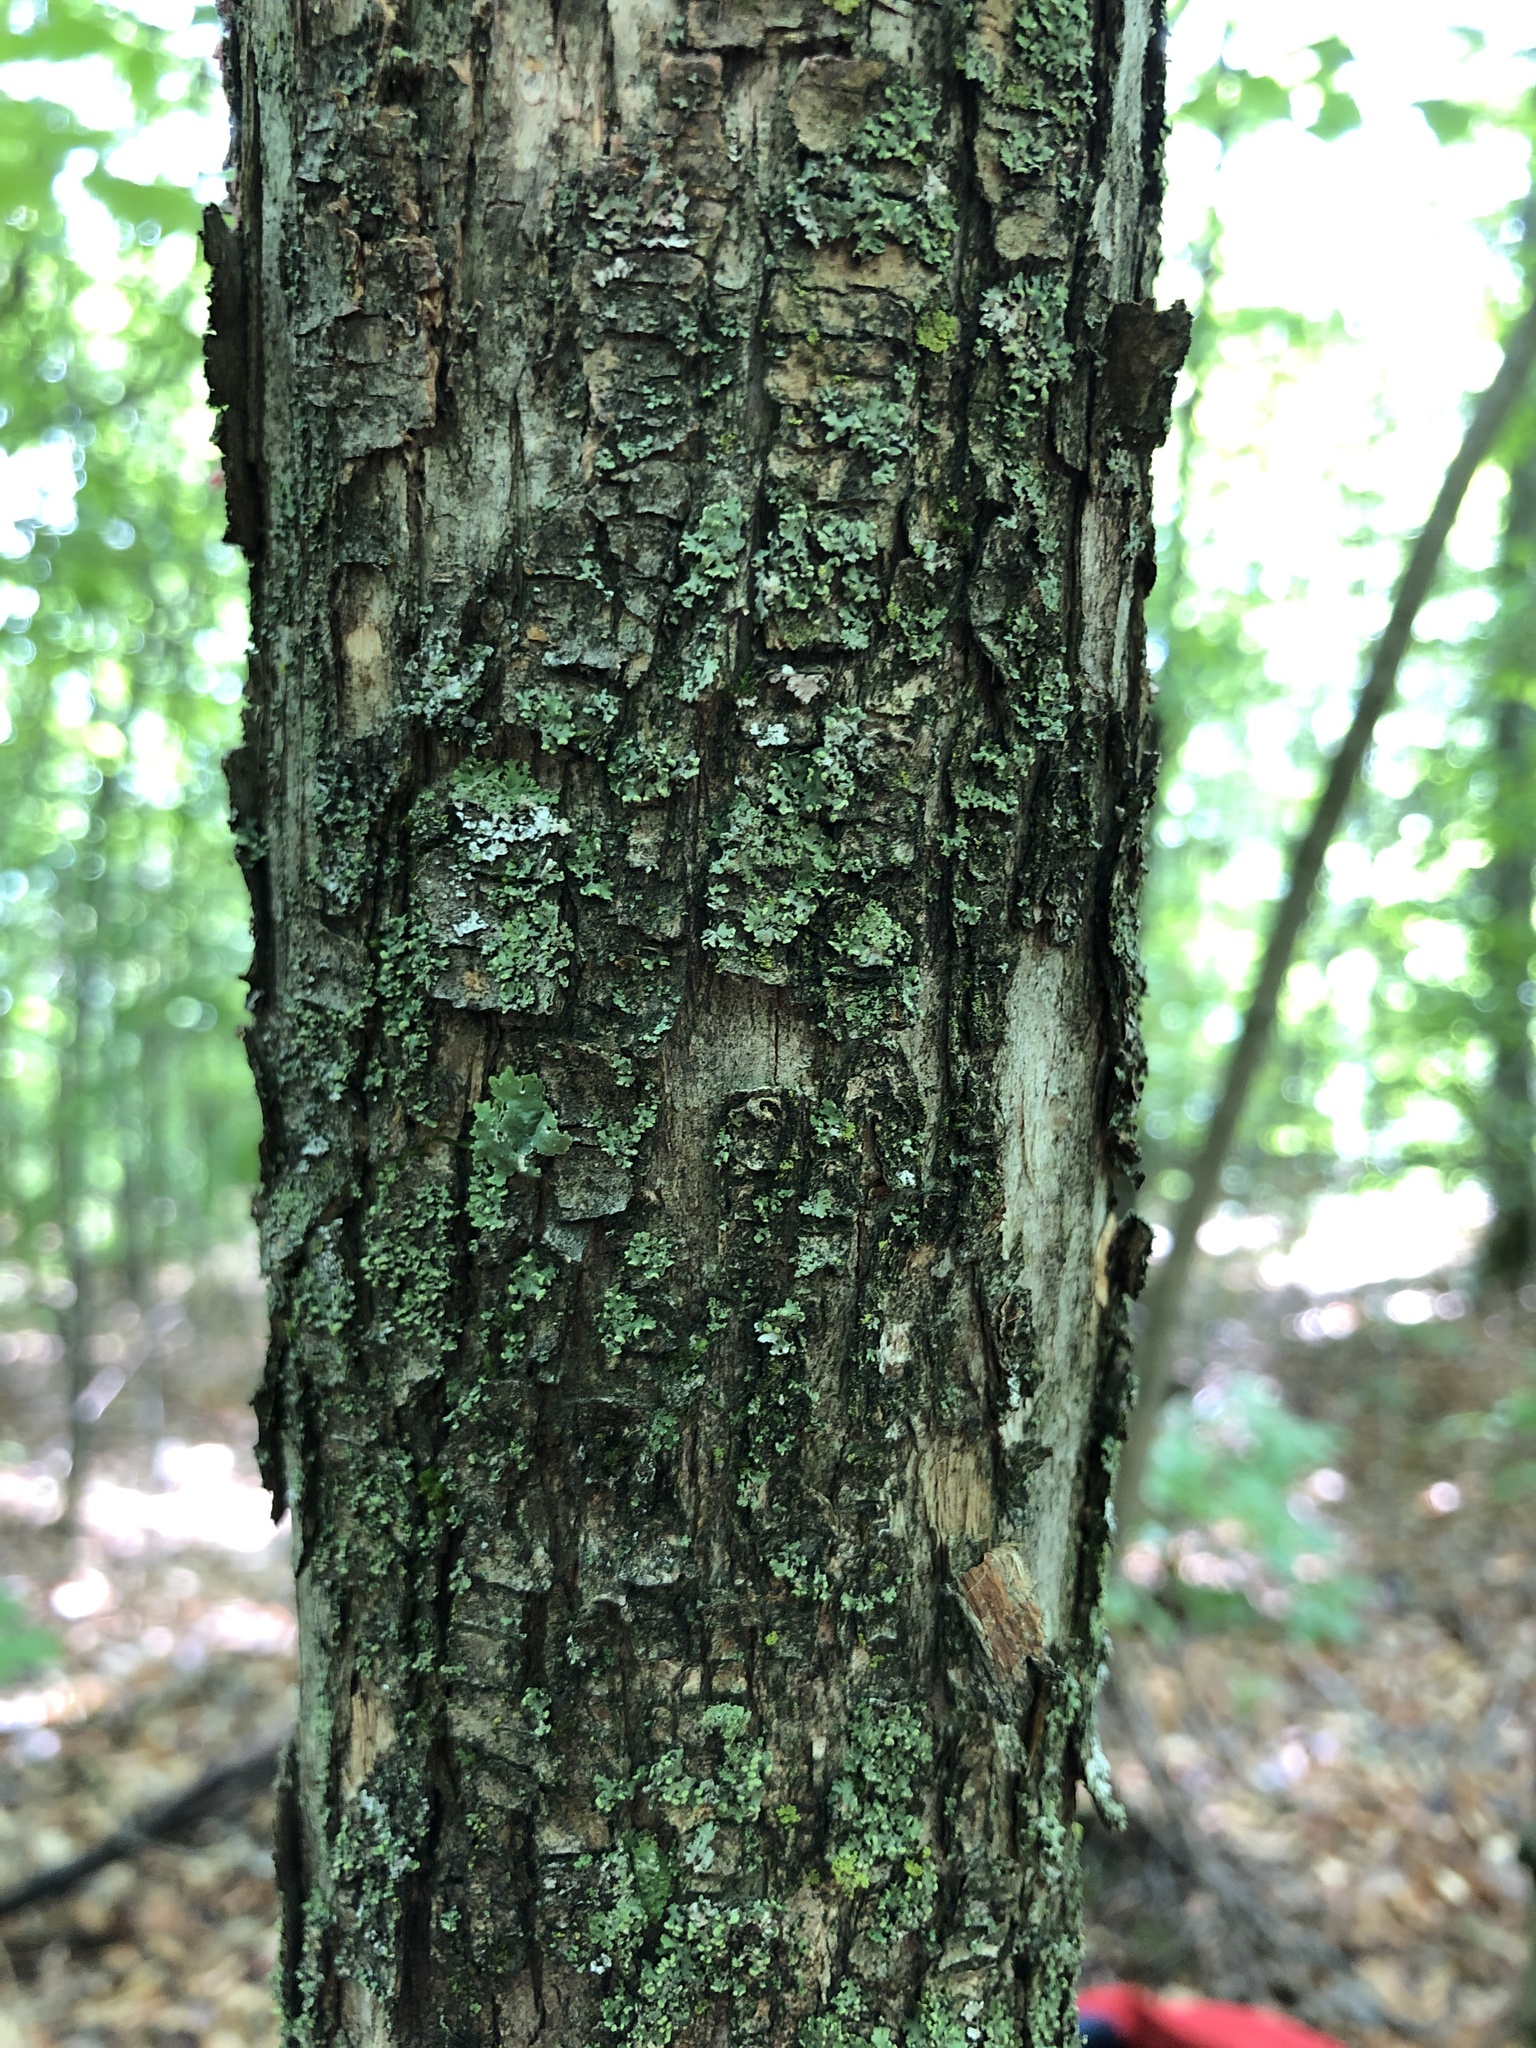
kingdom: Plantae
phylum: Tracheophyta
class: Magnoliopsida
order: Fagales
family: Betulaceae
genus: Ostrya
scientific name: Ostrya virginiana
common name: Ironwood
